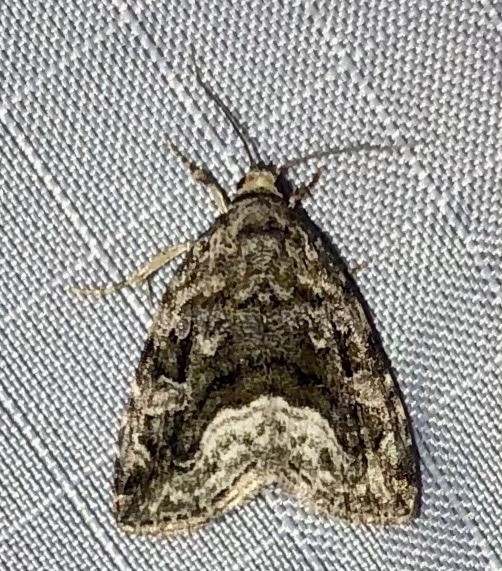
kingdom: Animalia
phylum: Arthropoda
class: Insecta
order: Lepidoptera
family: Noctuidae
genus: Protodeltote
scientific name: Protodeltote muscosula
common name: Large mossy glyph
